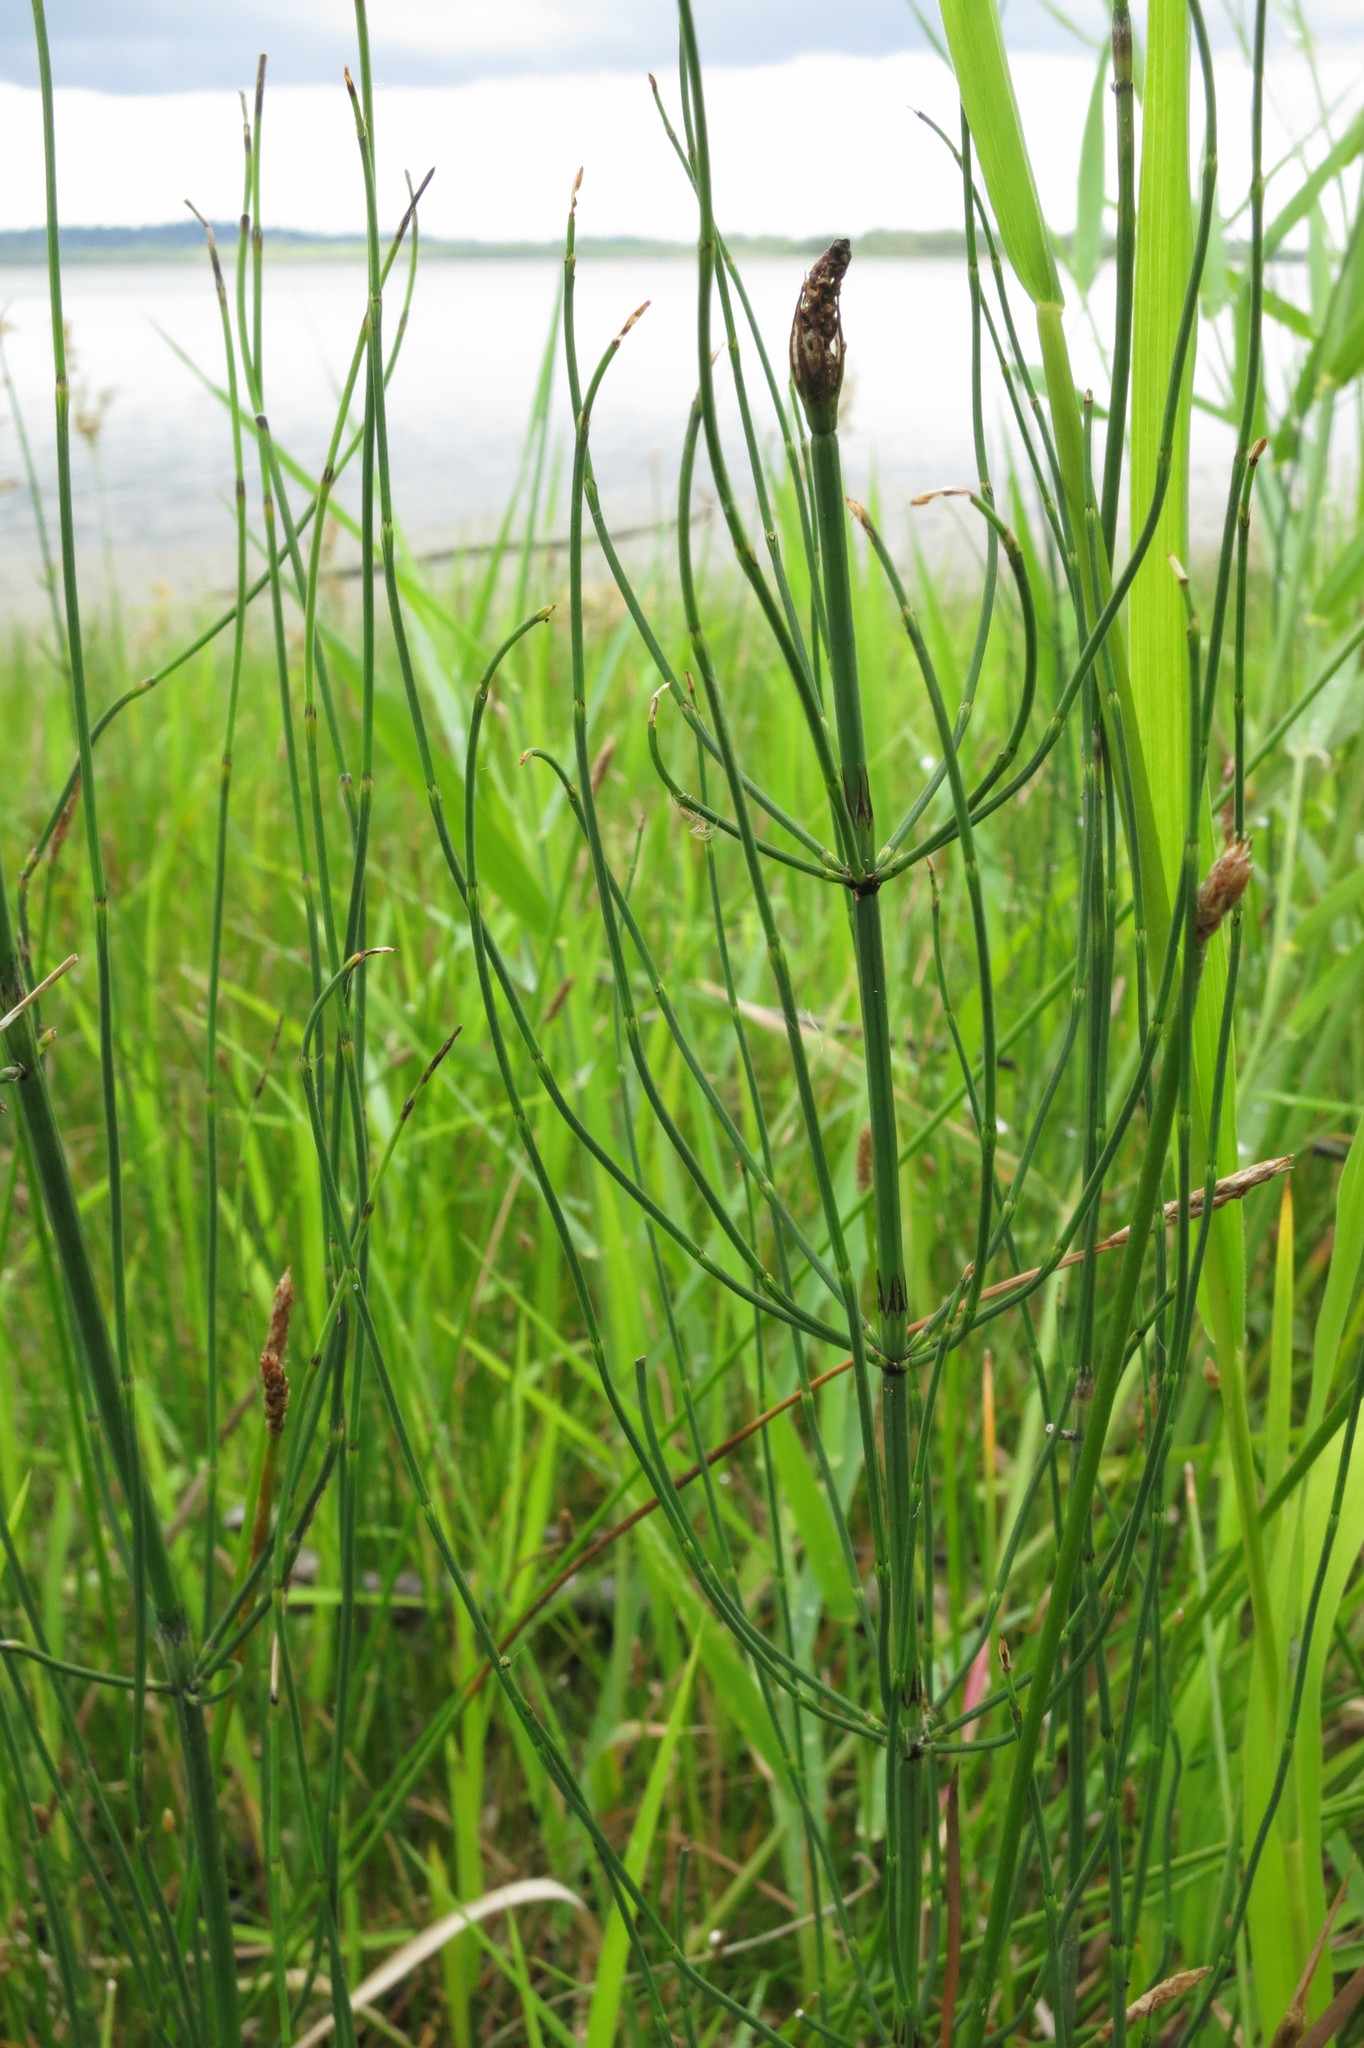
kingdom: Plantae
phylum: Tracheophyta
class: Polypodiopsida
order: Equisetales
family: Equisetaceae
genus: Equisetum
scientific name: Equisetum palustre
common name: Marsh horsetail
